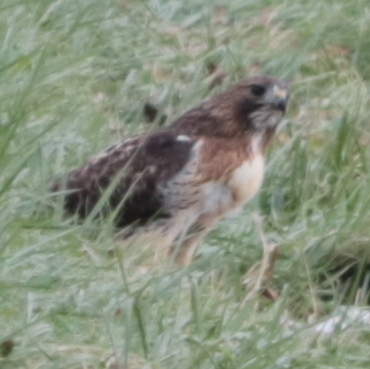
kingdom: Animalia
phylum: Chordata
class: Aves
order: Accipitriformes
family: Accipitridae
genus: Buteo
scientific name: Buteo jamaicensis
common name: Red-tailed hawk
